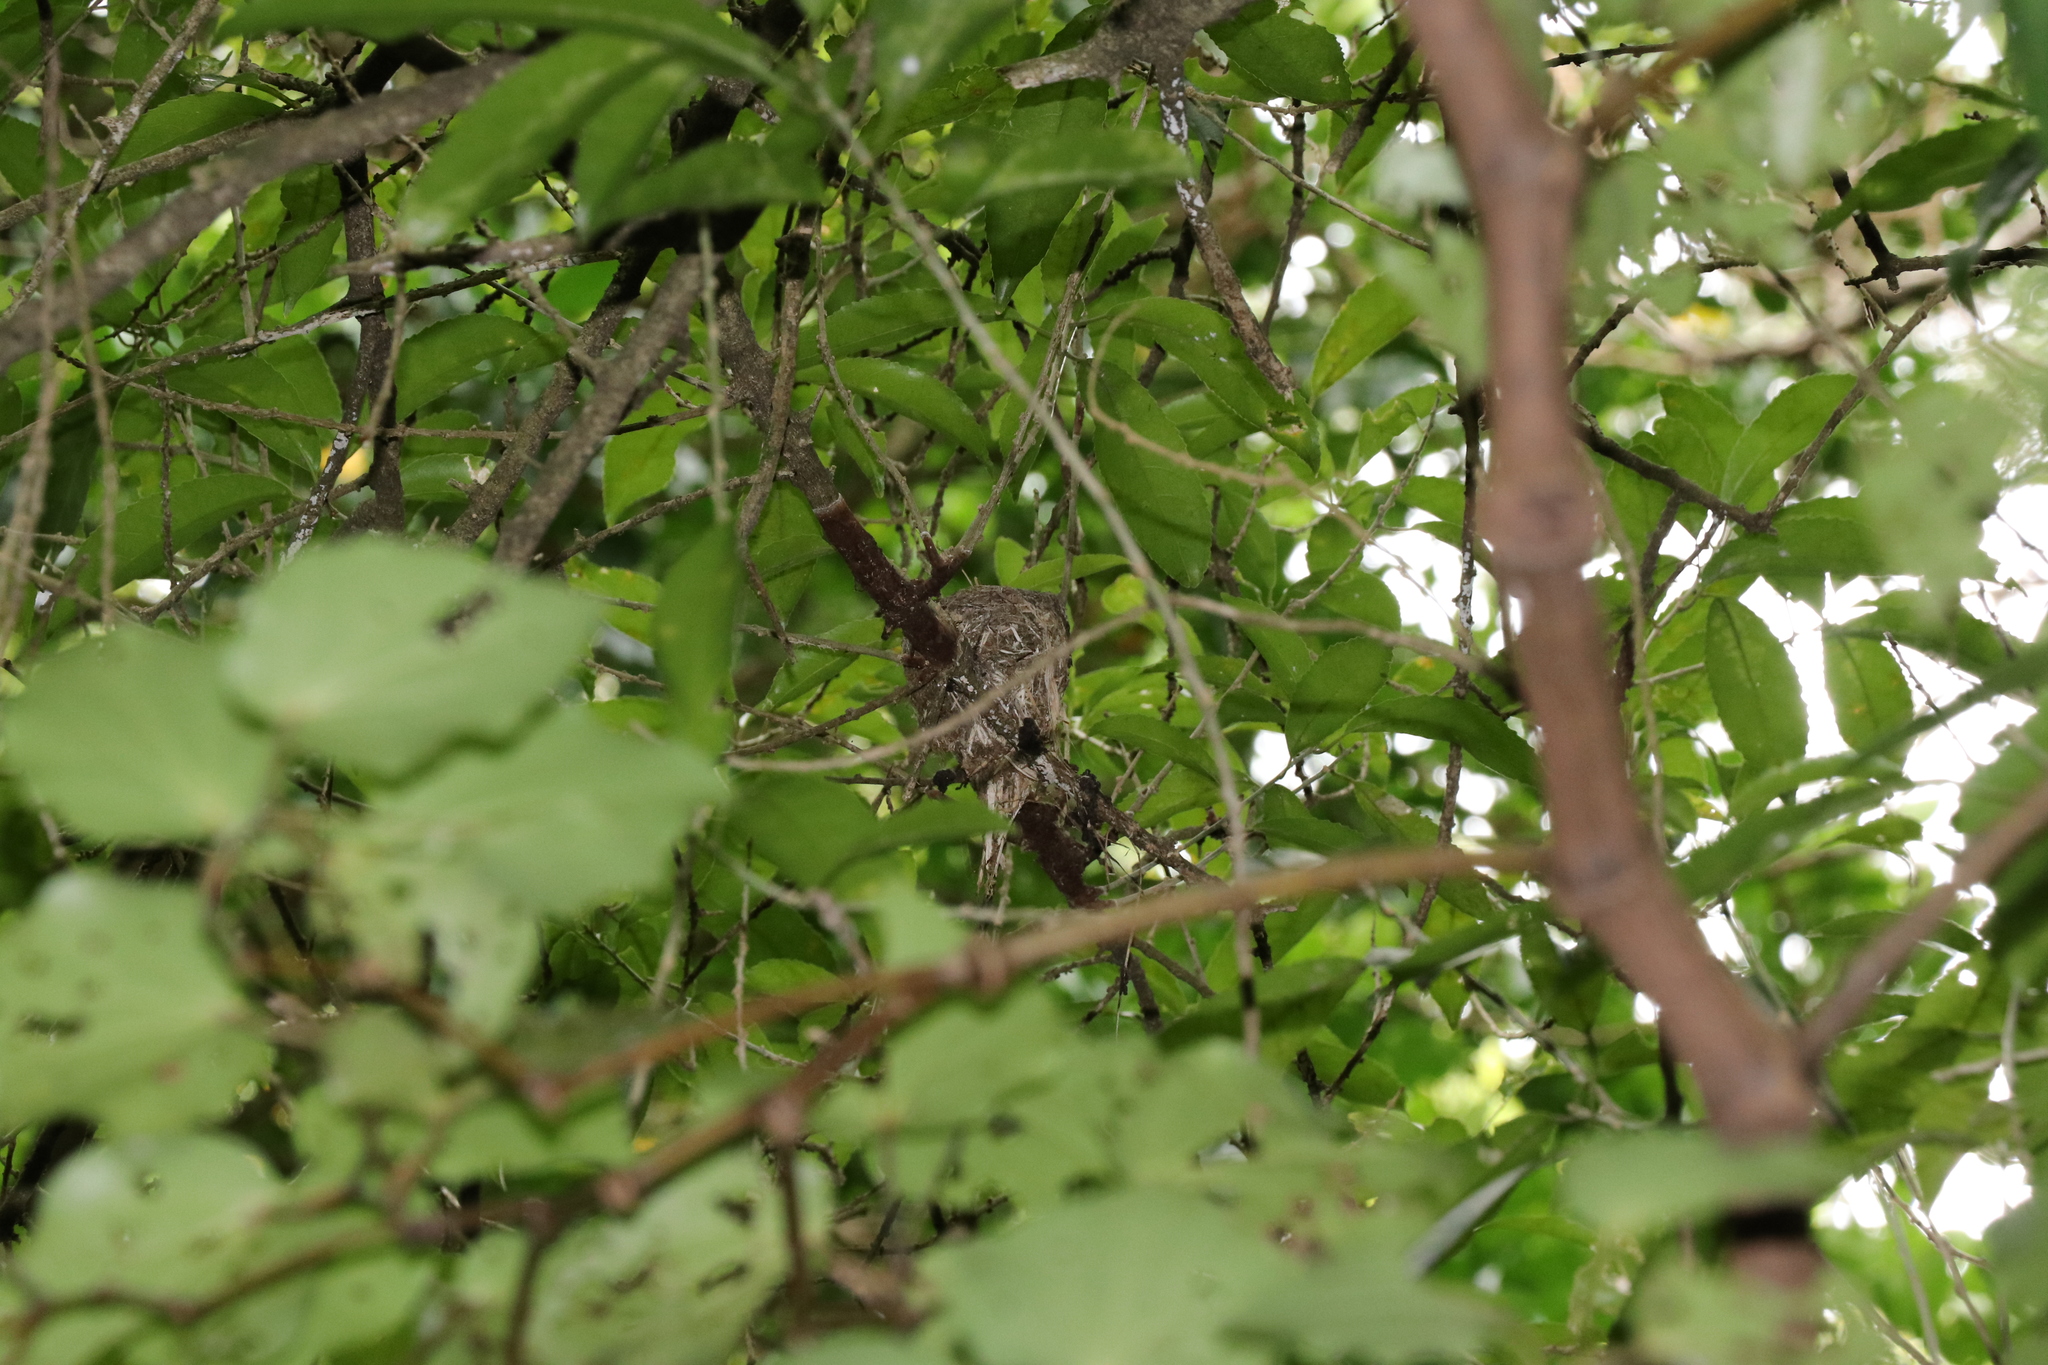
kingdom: Animalia
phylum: Chordata
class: Aves
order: Passeriformes
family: Rhipiduridae
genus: Rhipidura
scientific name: Rhipidura fuliginosa
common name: New zealand fantail
